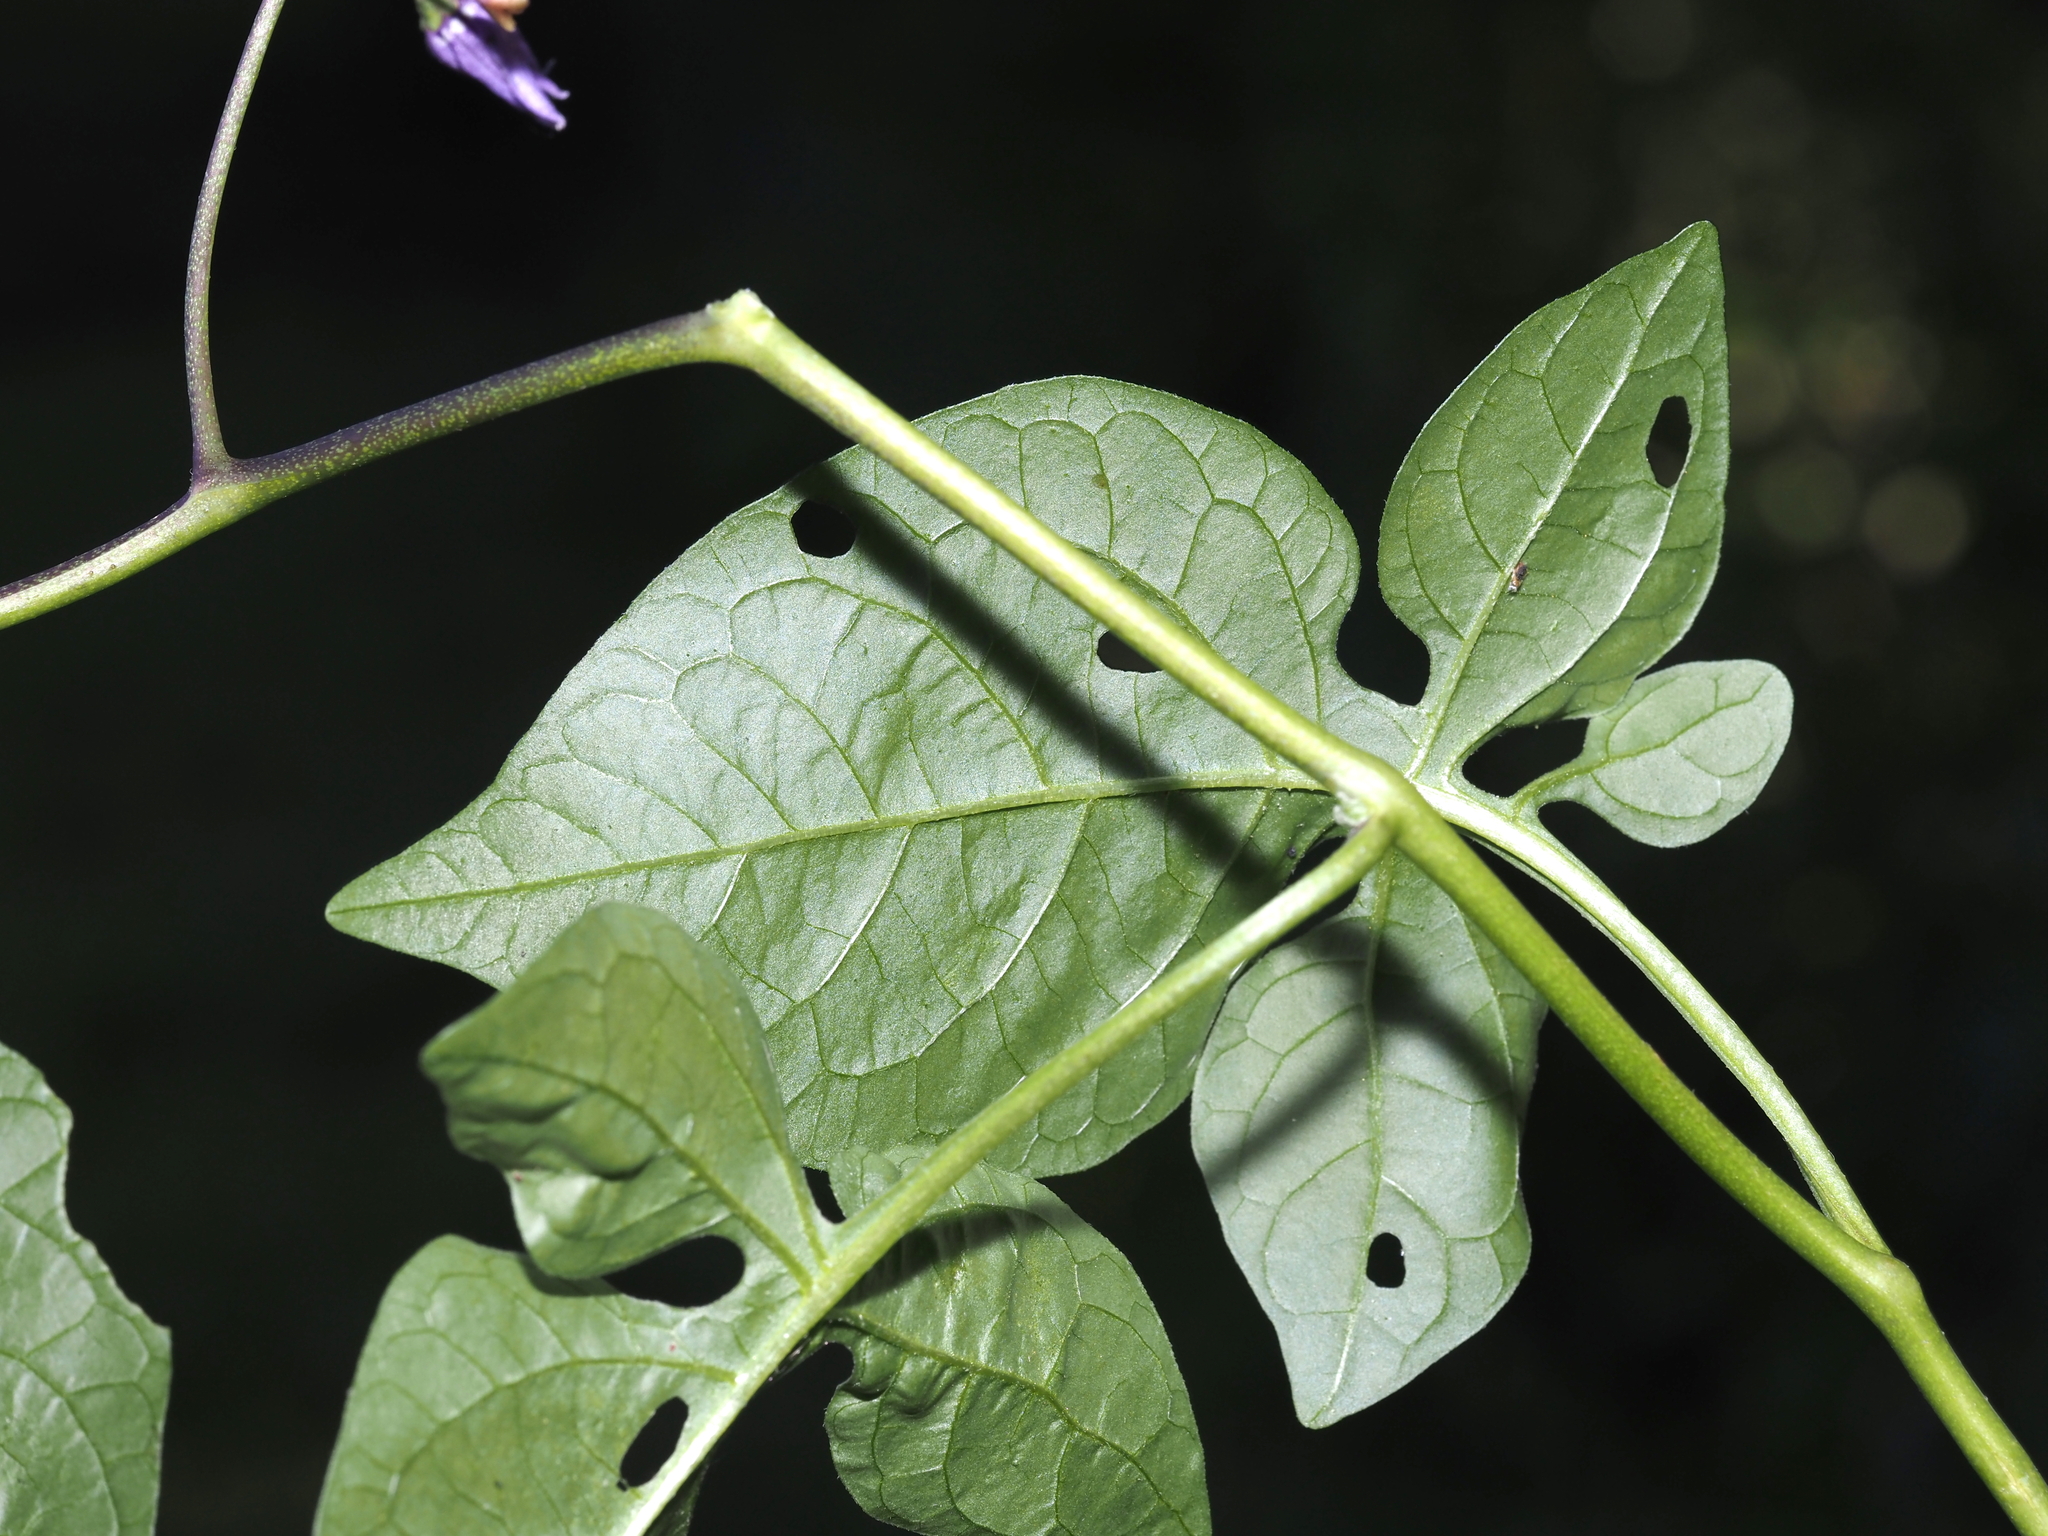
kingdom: Plantae
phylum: Tracheophyta
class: Magnoliopsida
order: Solanales
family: Solanaceae
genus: Solanum
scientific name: Solanum dulcamara
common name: Climbing nightshade
